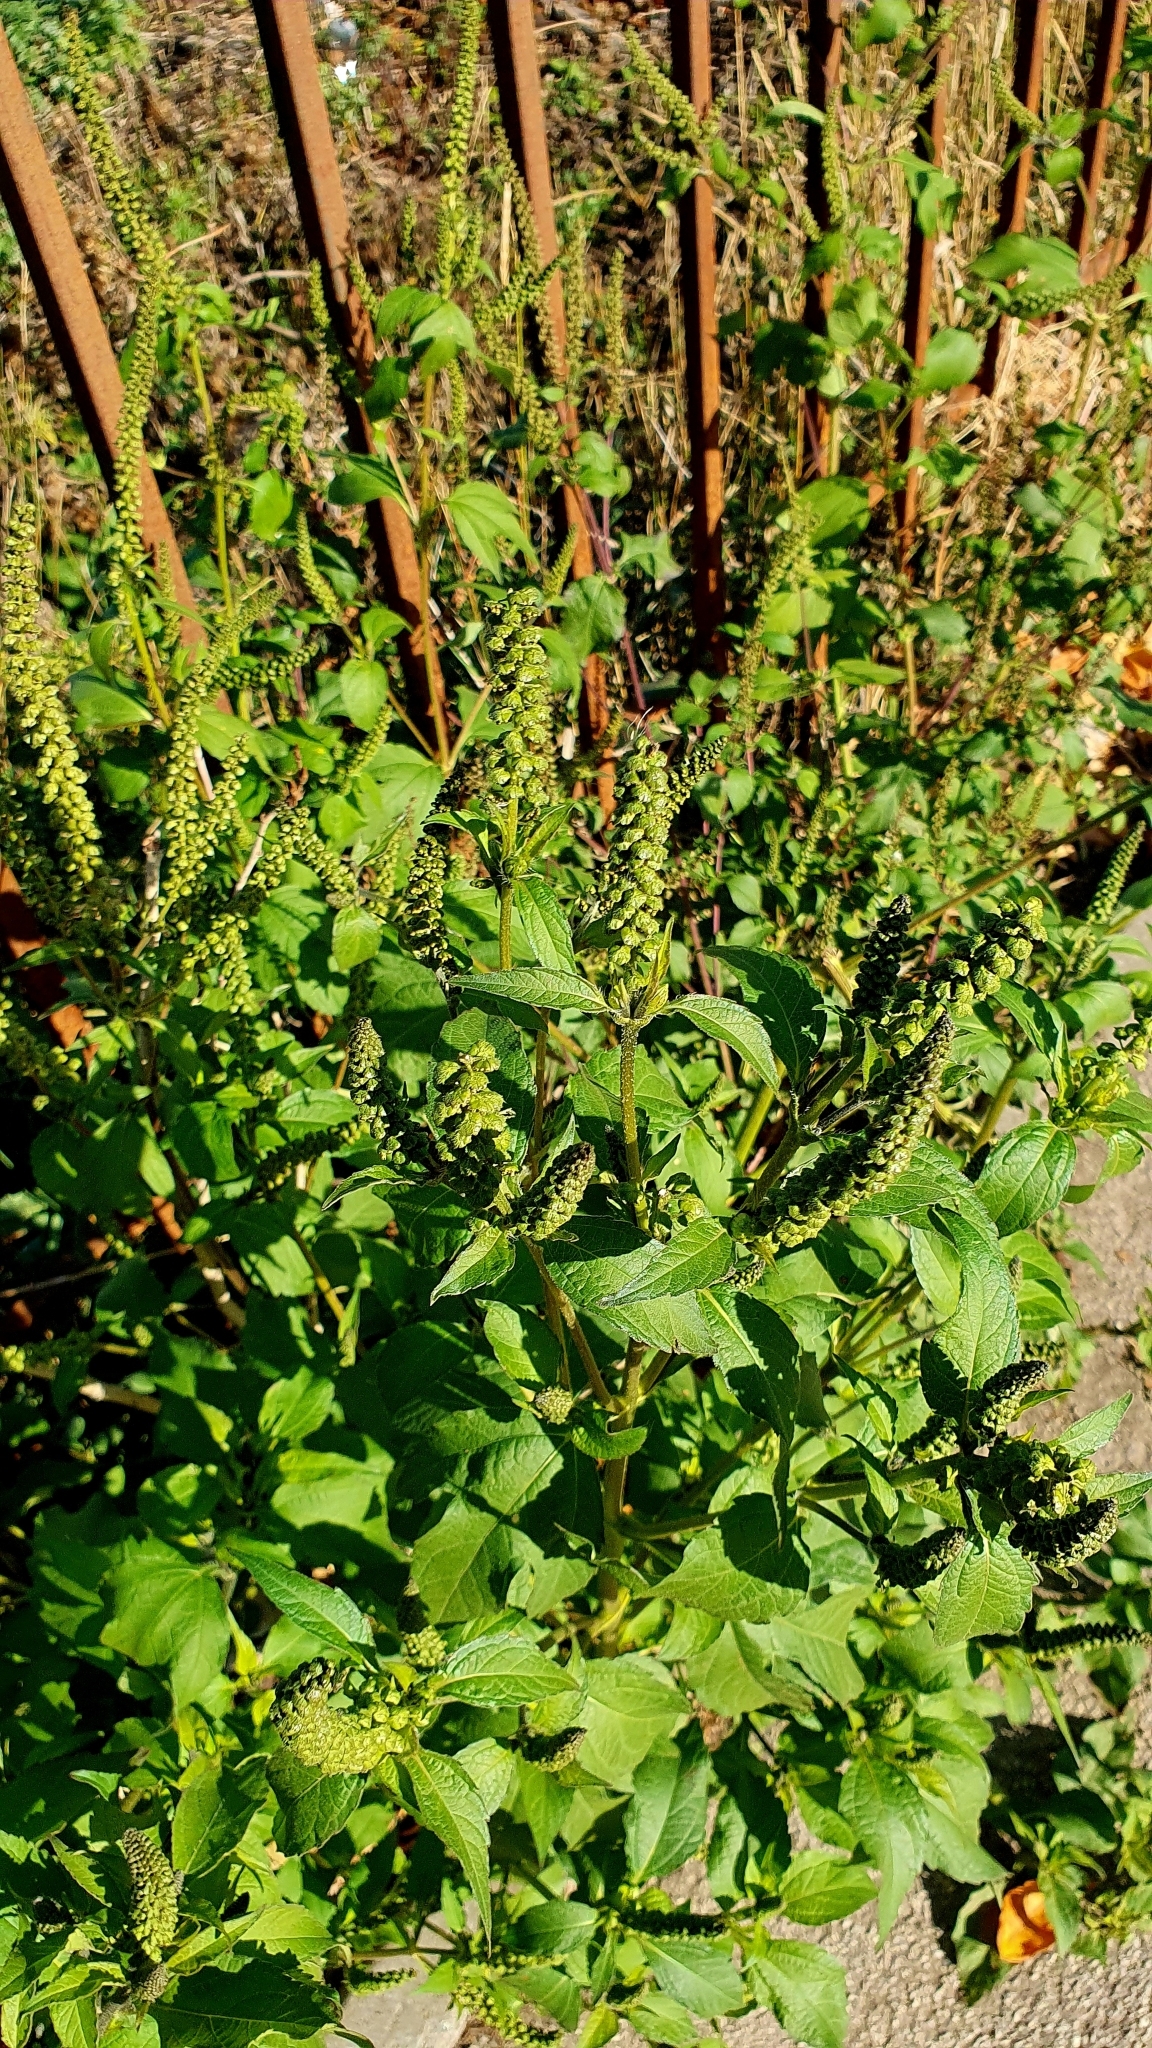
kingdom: Plantae
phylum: Tracheophyta
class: Magnoliopsida
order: Asterales
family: Asteraceae
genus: Ambrosia
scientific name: Ambrosia trifida
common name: Giant ragweed
